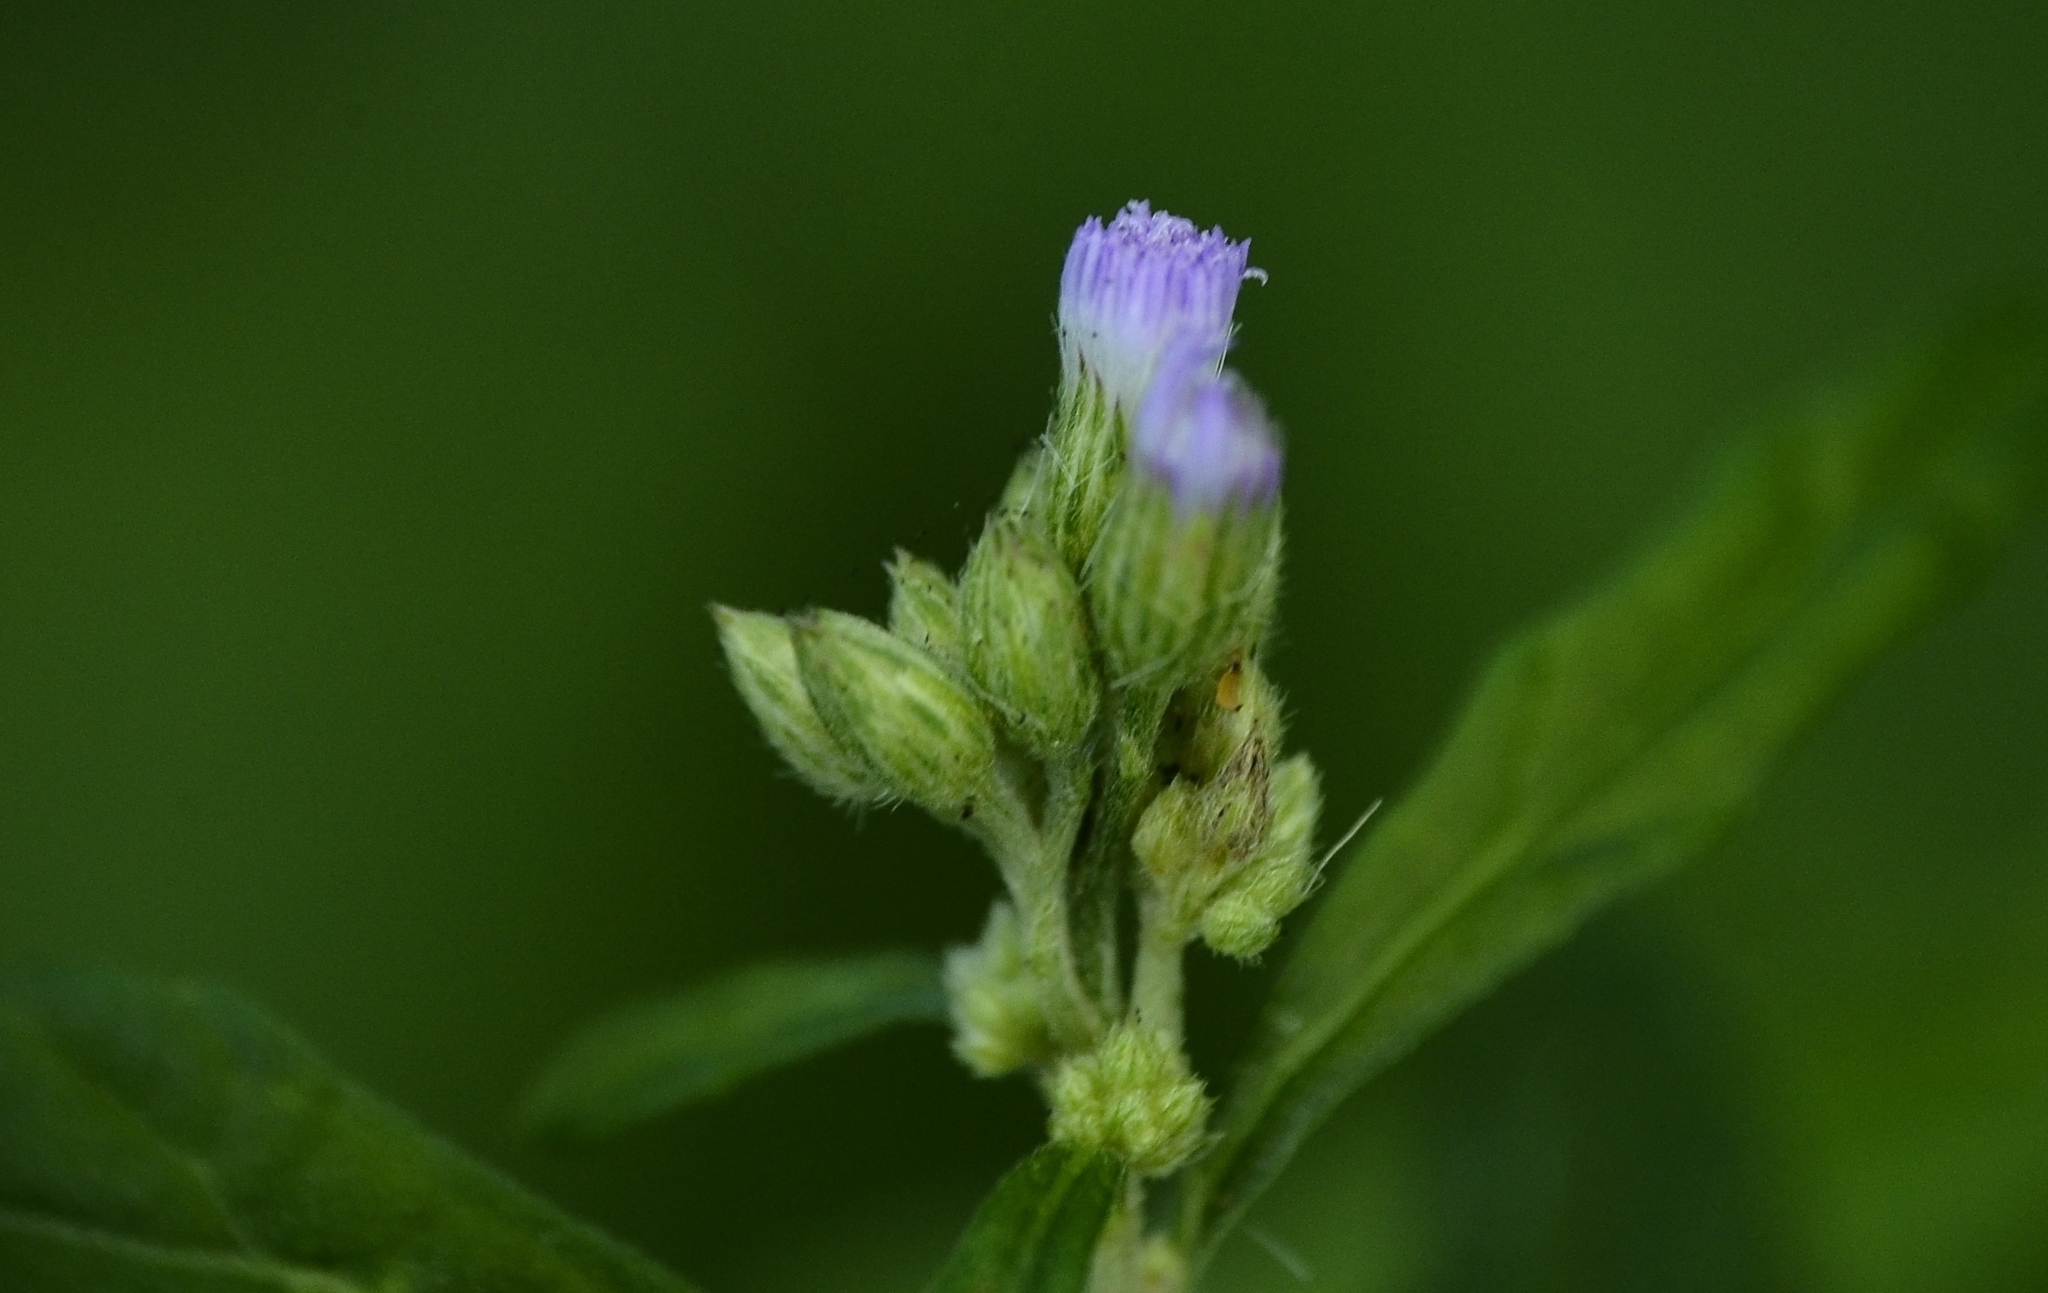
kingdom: Plantae
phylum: Tracheophyta
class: Magnoliopsida
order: Asterales
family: Asteraceae
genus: Cyanthillium
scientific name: Cyanthillium cinereum
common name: Little ironweed
